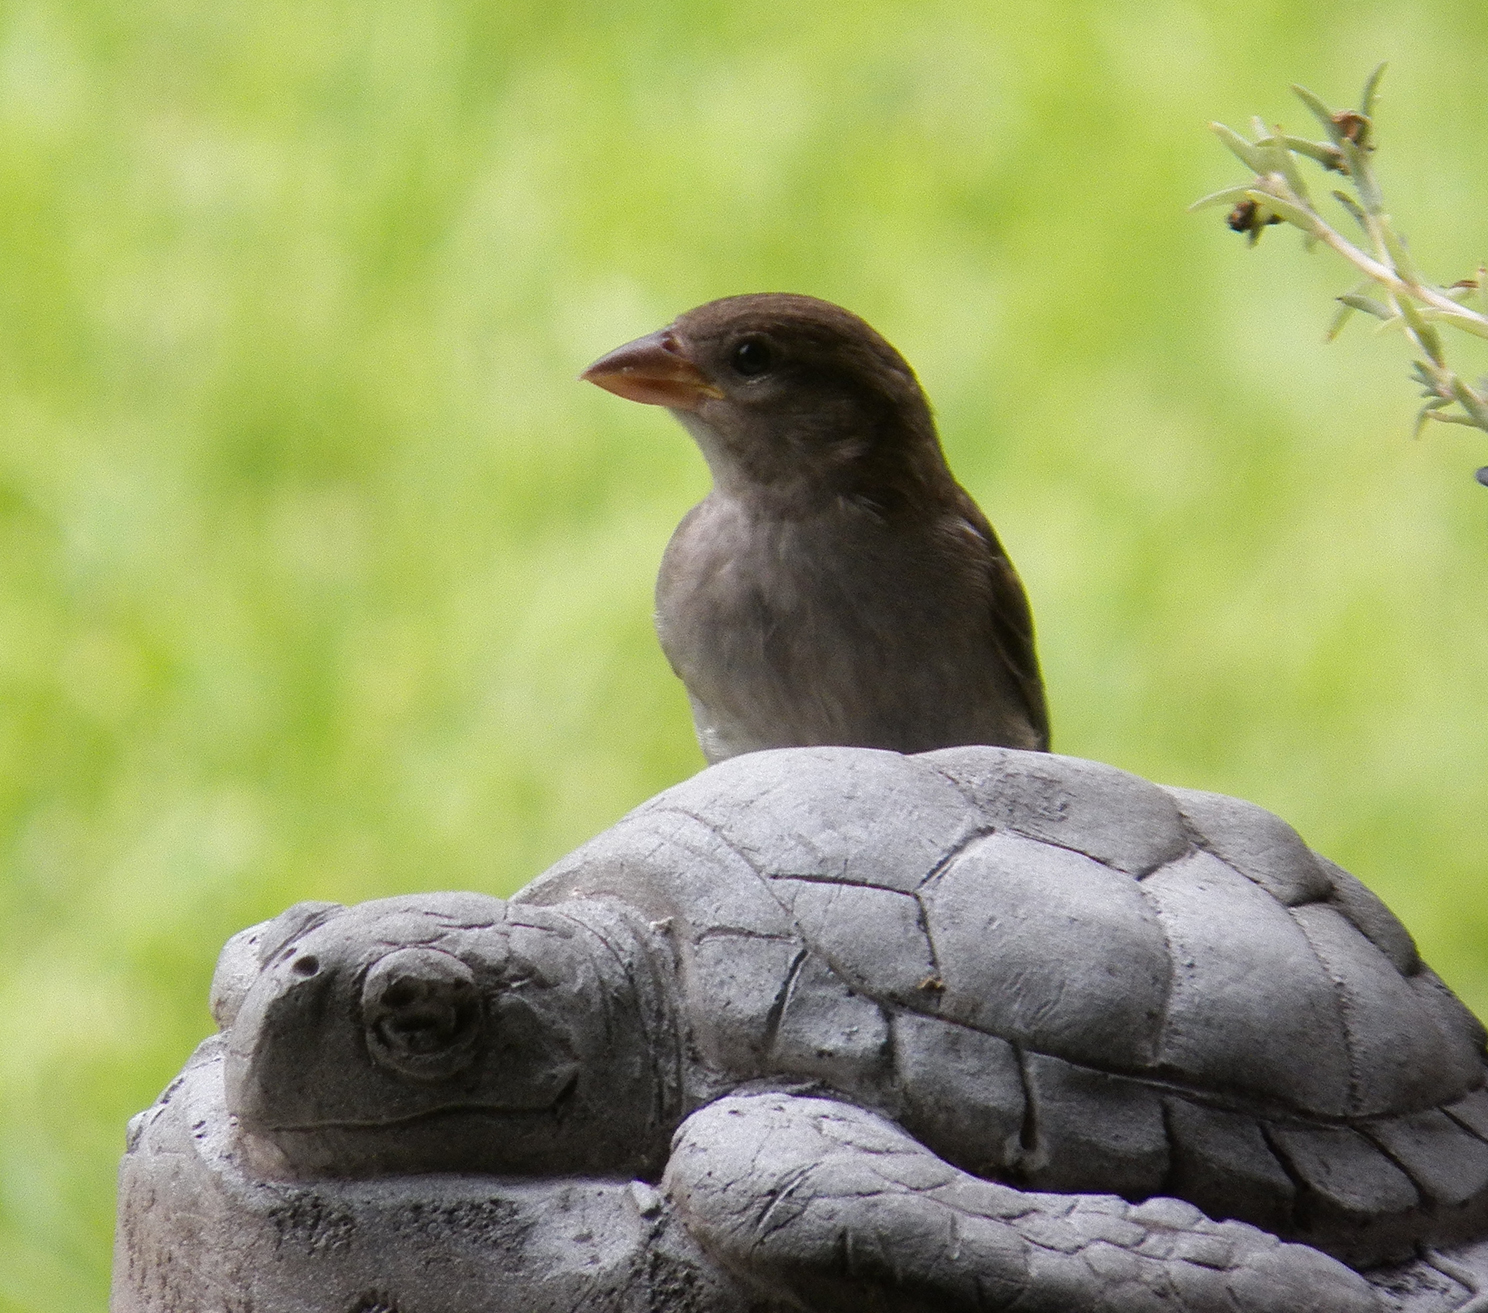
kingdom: Animalia
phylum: Chordata
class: Aves
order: Passeriformes
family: Passeridae
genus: Passer
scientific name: Passer domesticus
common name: House sparrow
